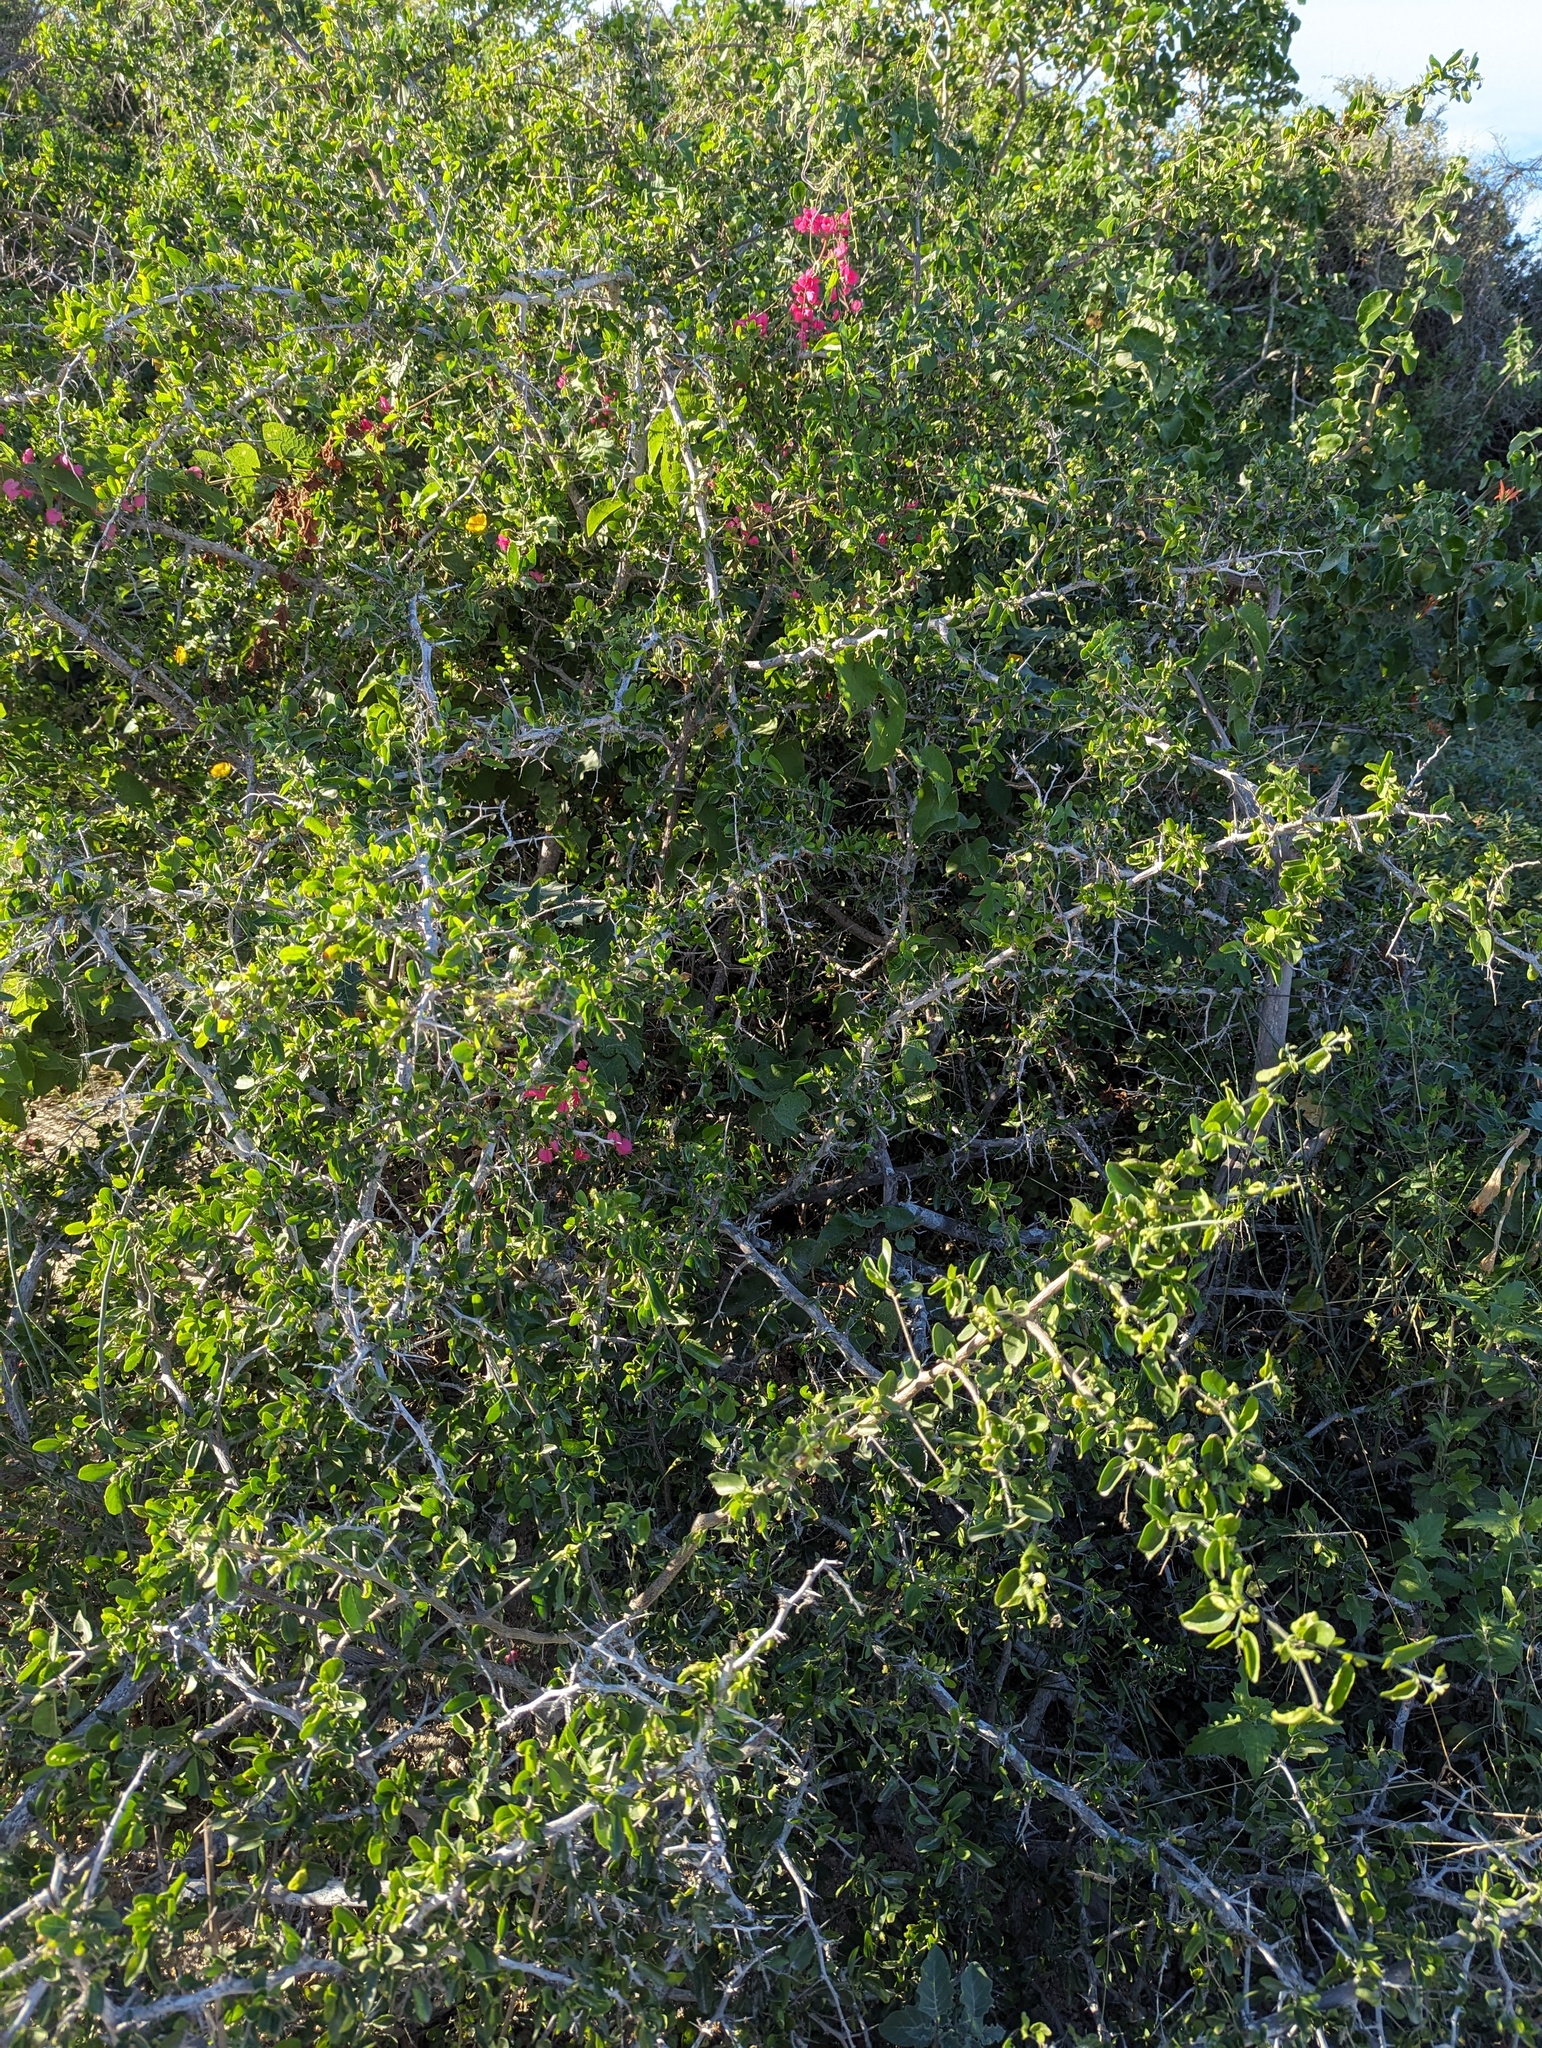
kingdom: Plantae
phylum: Tracheophyta
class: Magnoliopsida
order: Rosales
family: Cannabaceae
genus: Celtis
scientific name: Celtis pallida
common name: Desert hackberry
